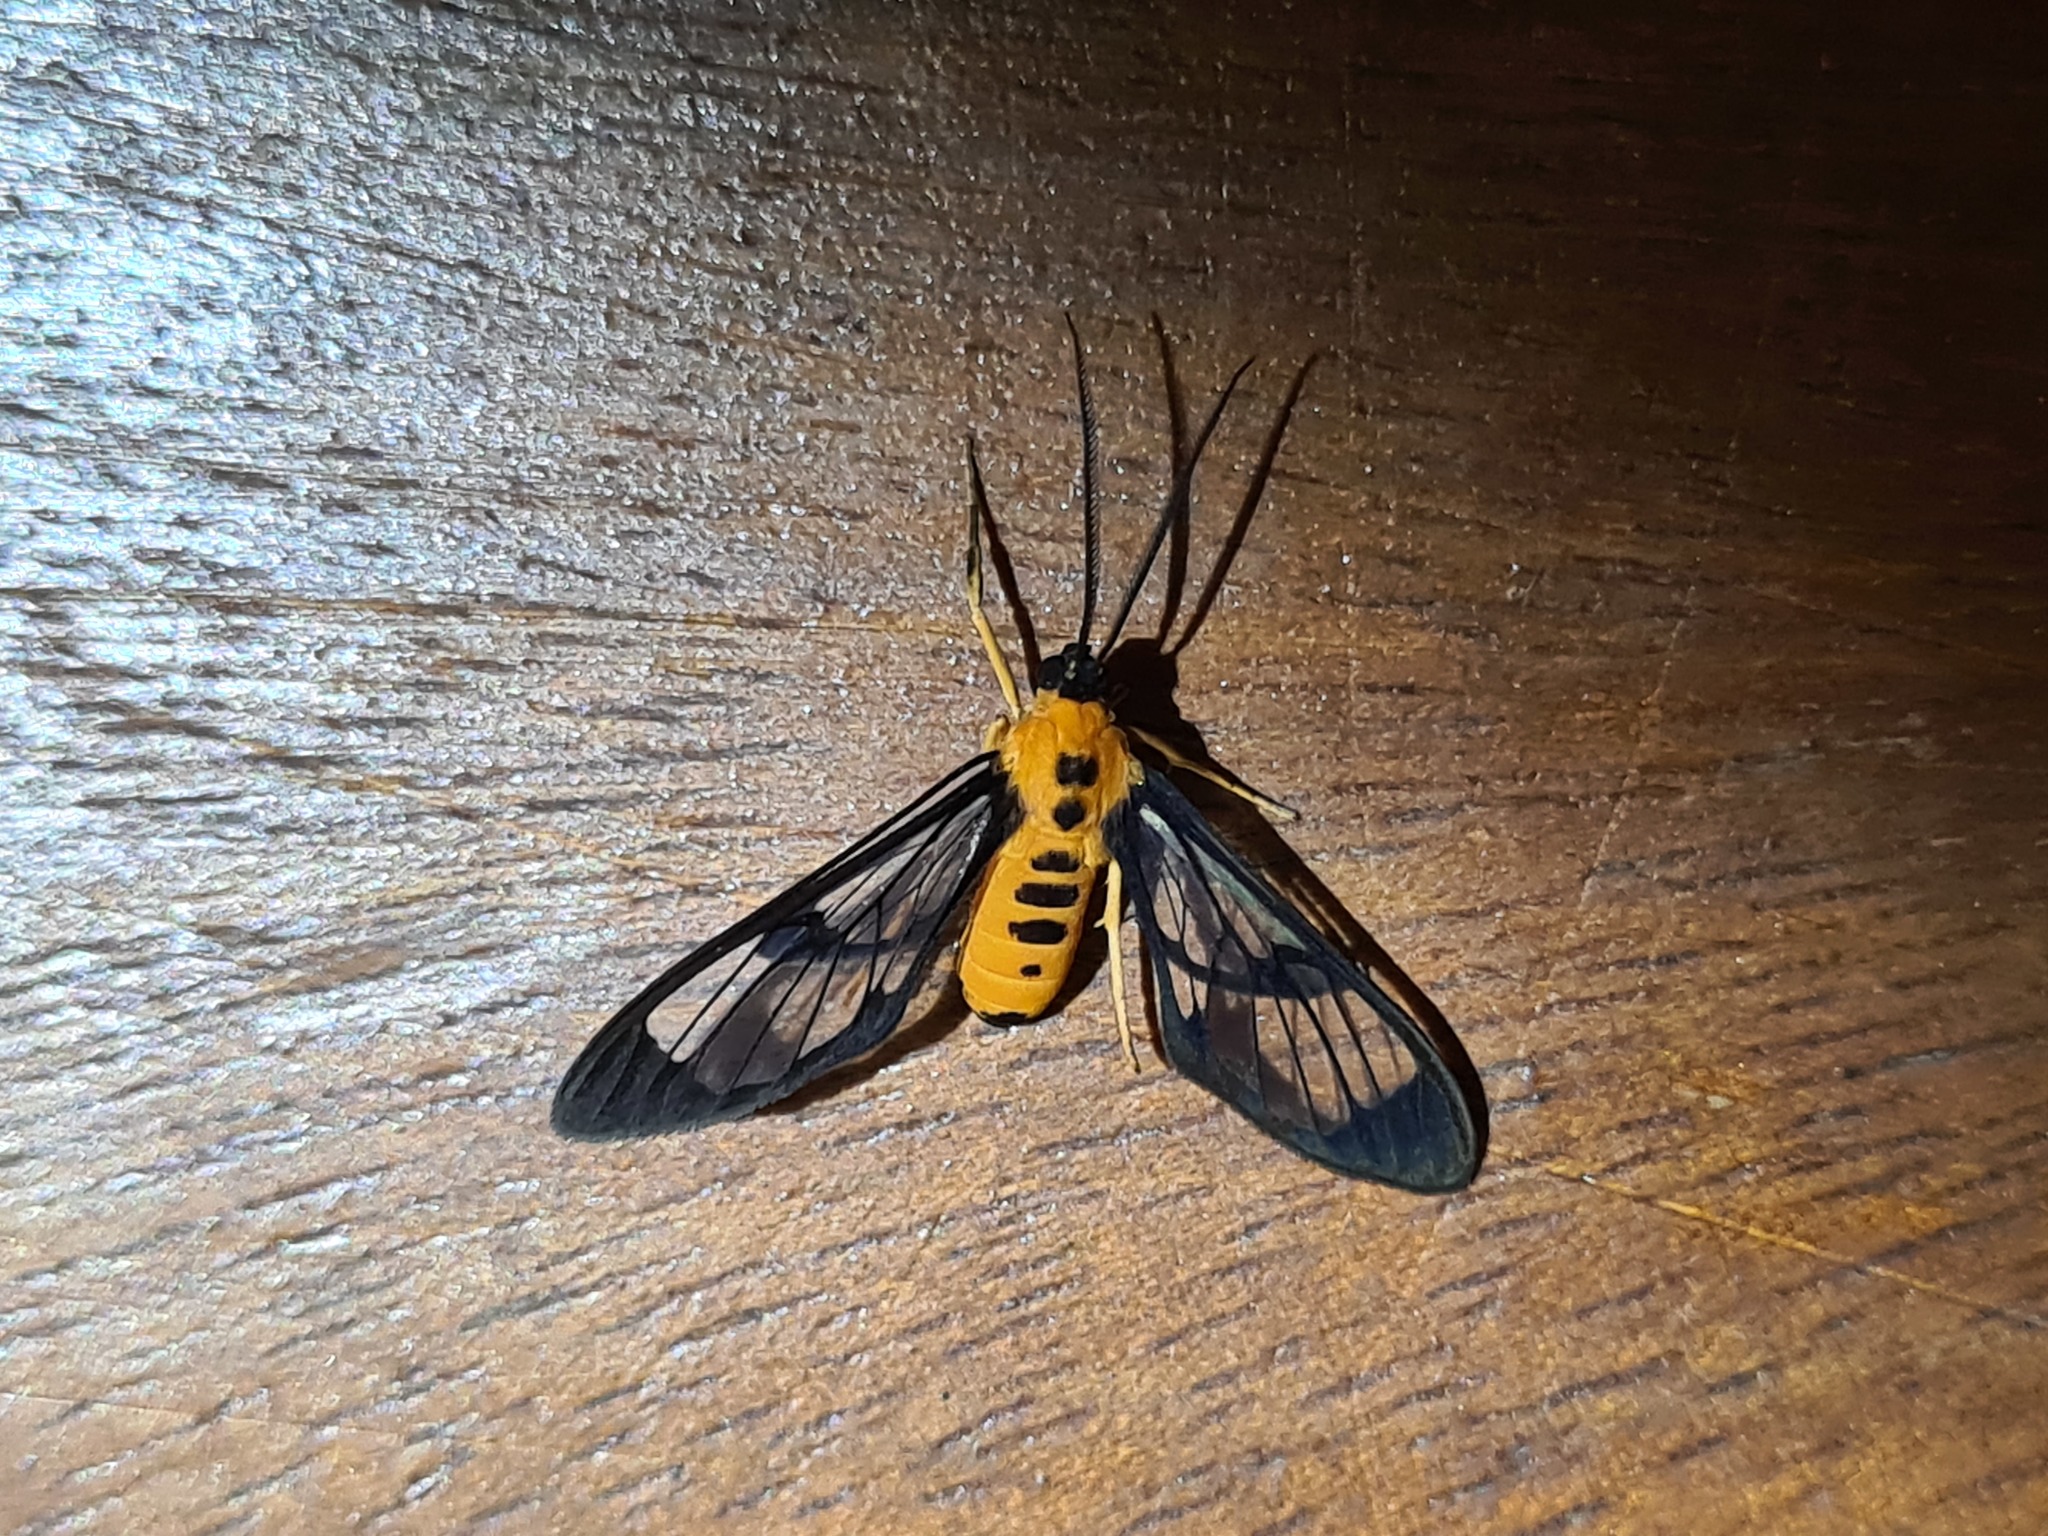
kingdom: Animalia
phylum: Arthropoda
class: Insecta
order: Lepidoptera
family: Erebidae
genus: Cosmosoma
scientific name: Cosmosoma dorsimacula
